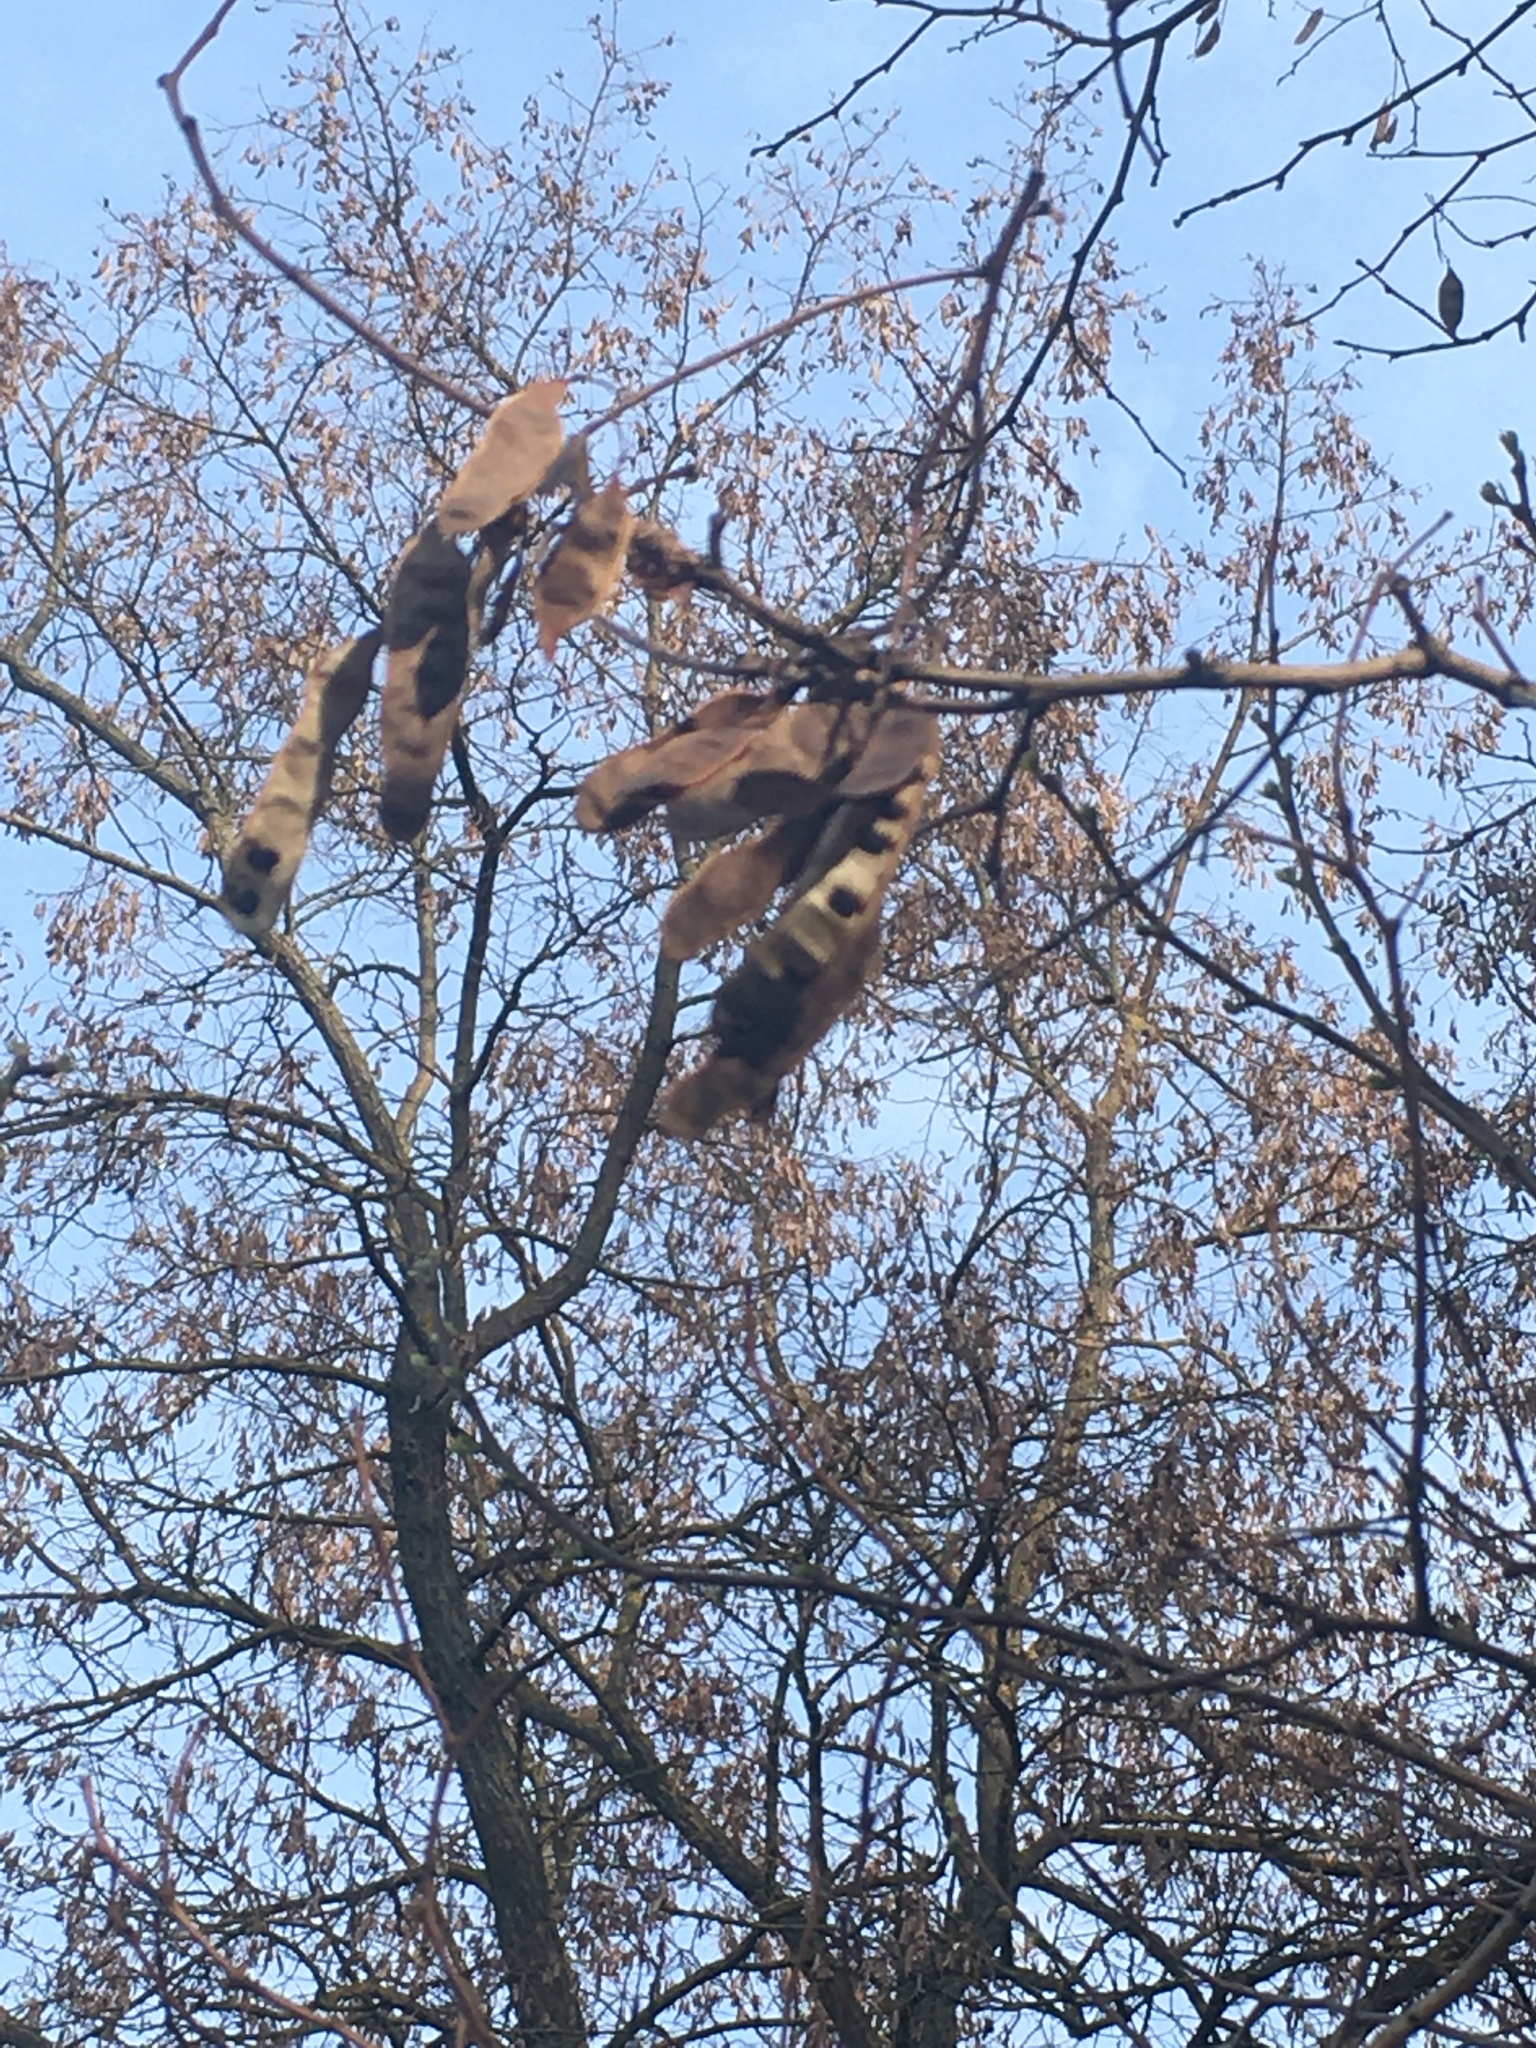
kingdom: Plantae
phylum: Tracheophyta
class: Magnoliopsida
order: Fabales
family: Fabaceae
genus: Robinia
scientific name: Robinia pseudoacacia
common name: Black locust
